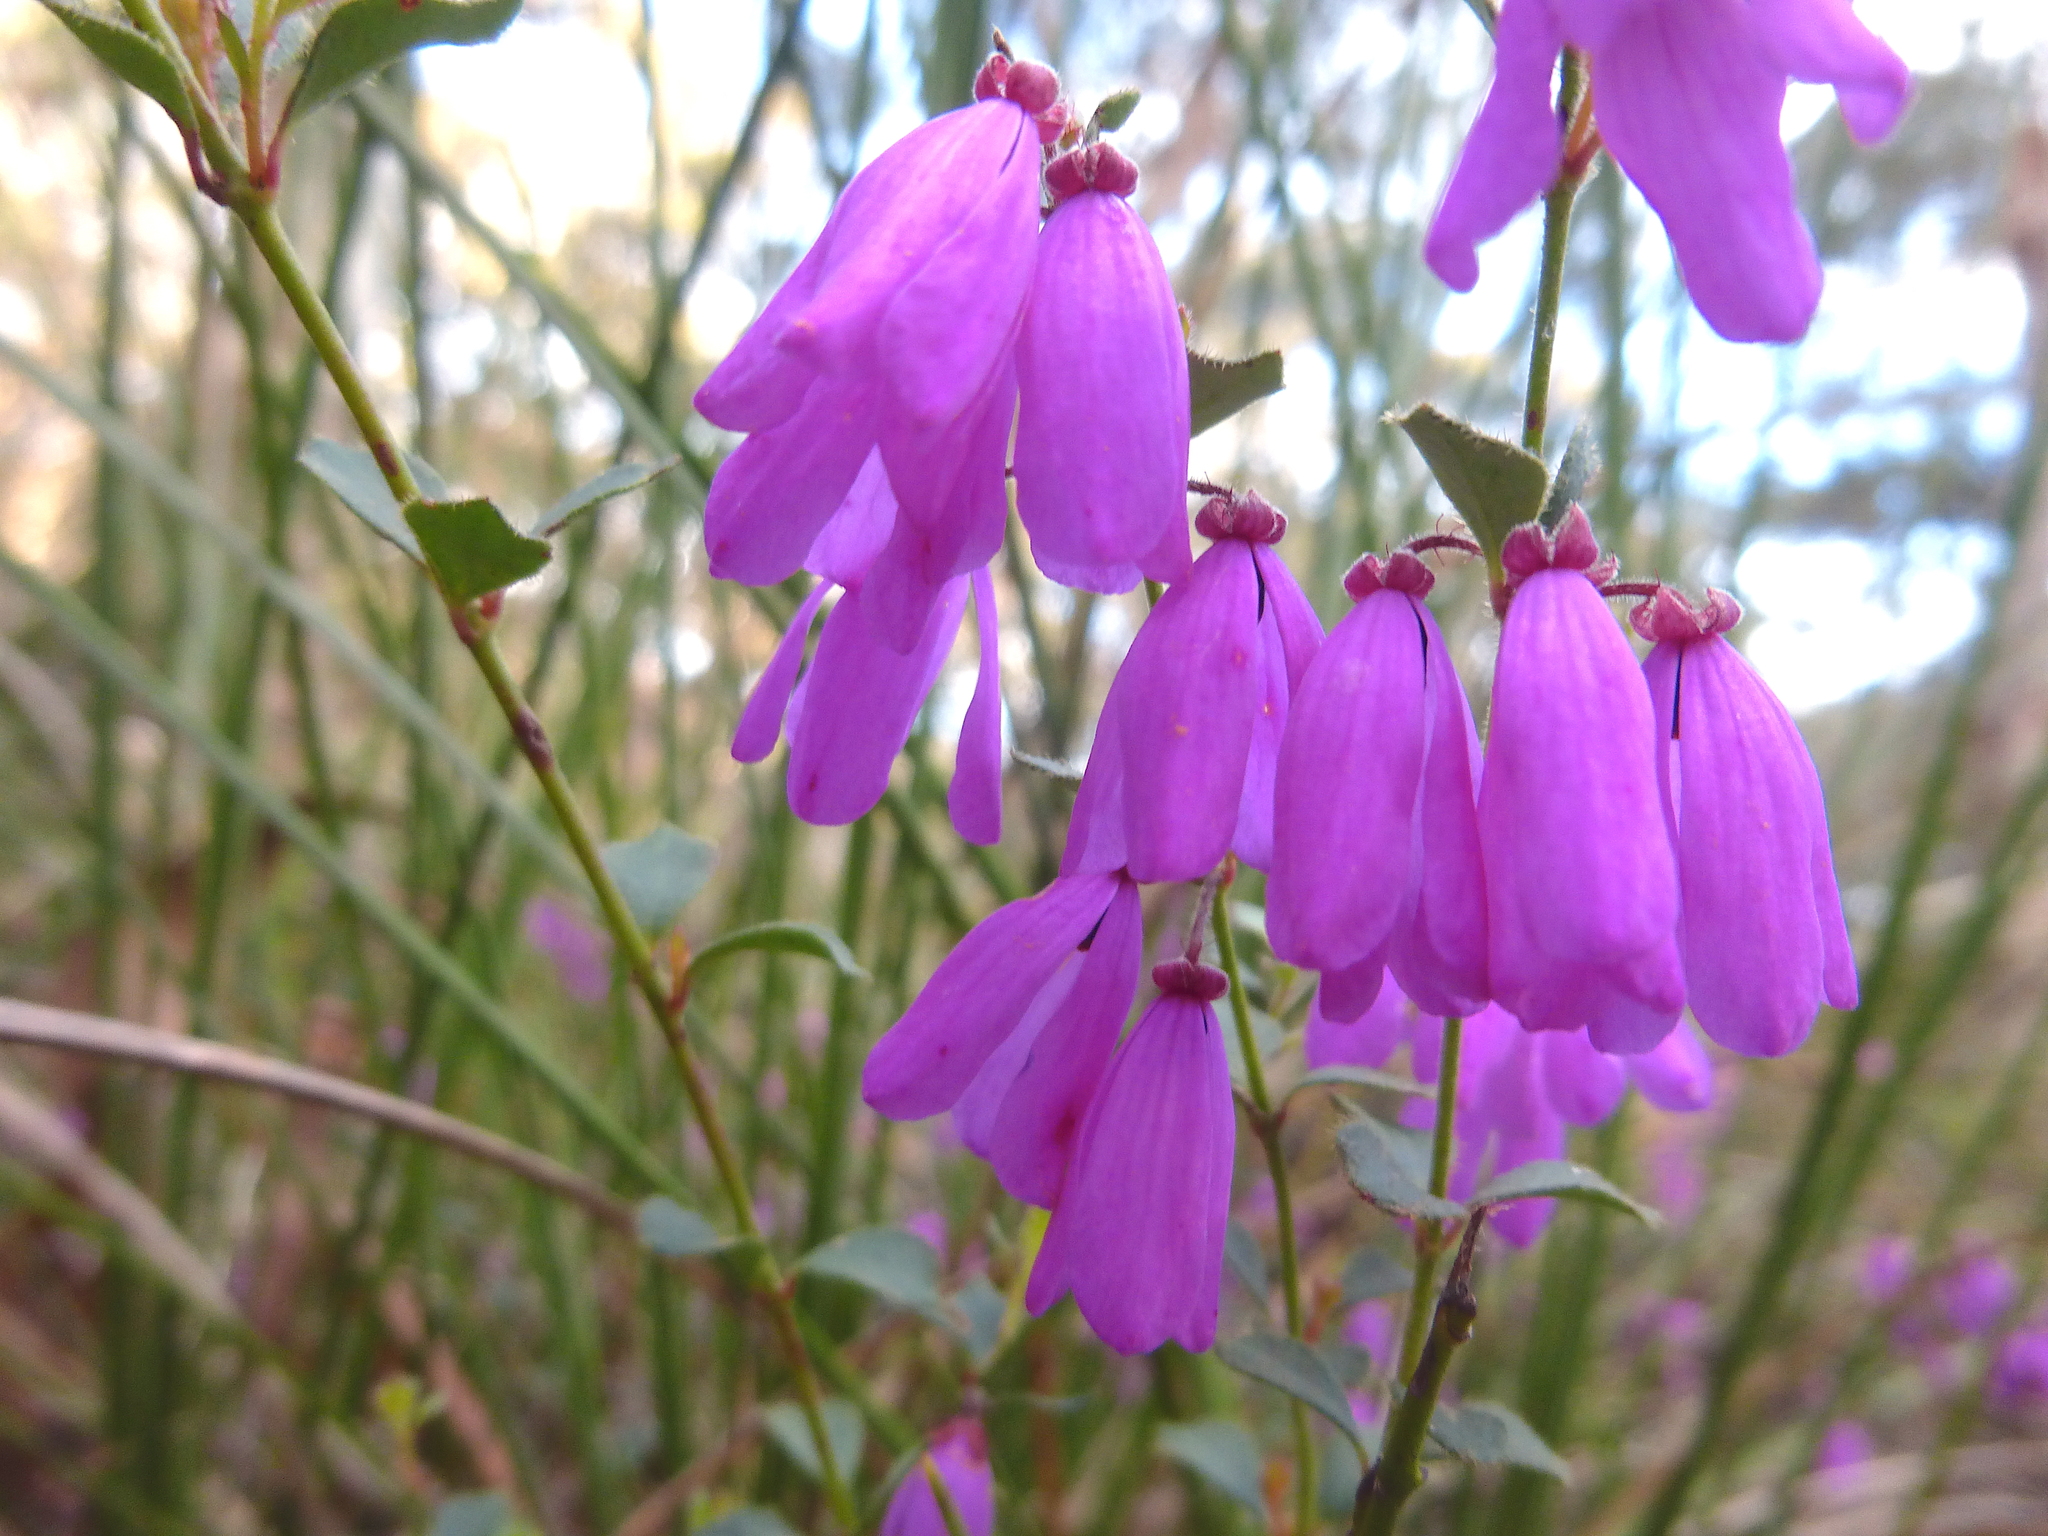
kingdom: Plantae
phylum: Tracheophyta
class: Magnoliopsida
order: Oxalidales
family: Elaeocarpaceae
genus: Tetratheca
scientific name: Tetratheca ciliata
